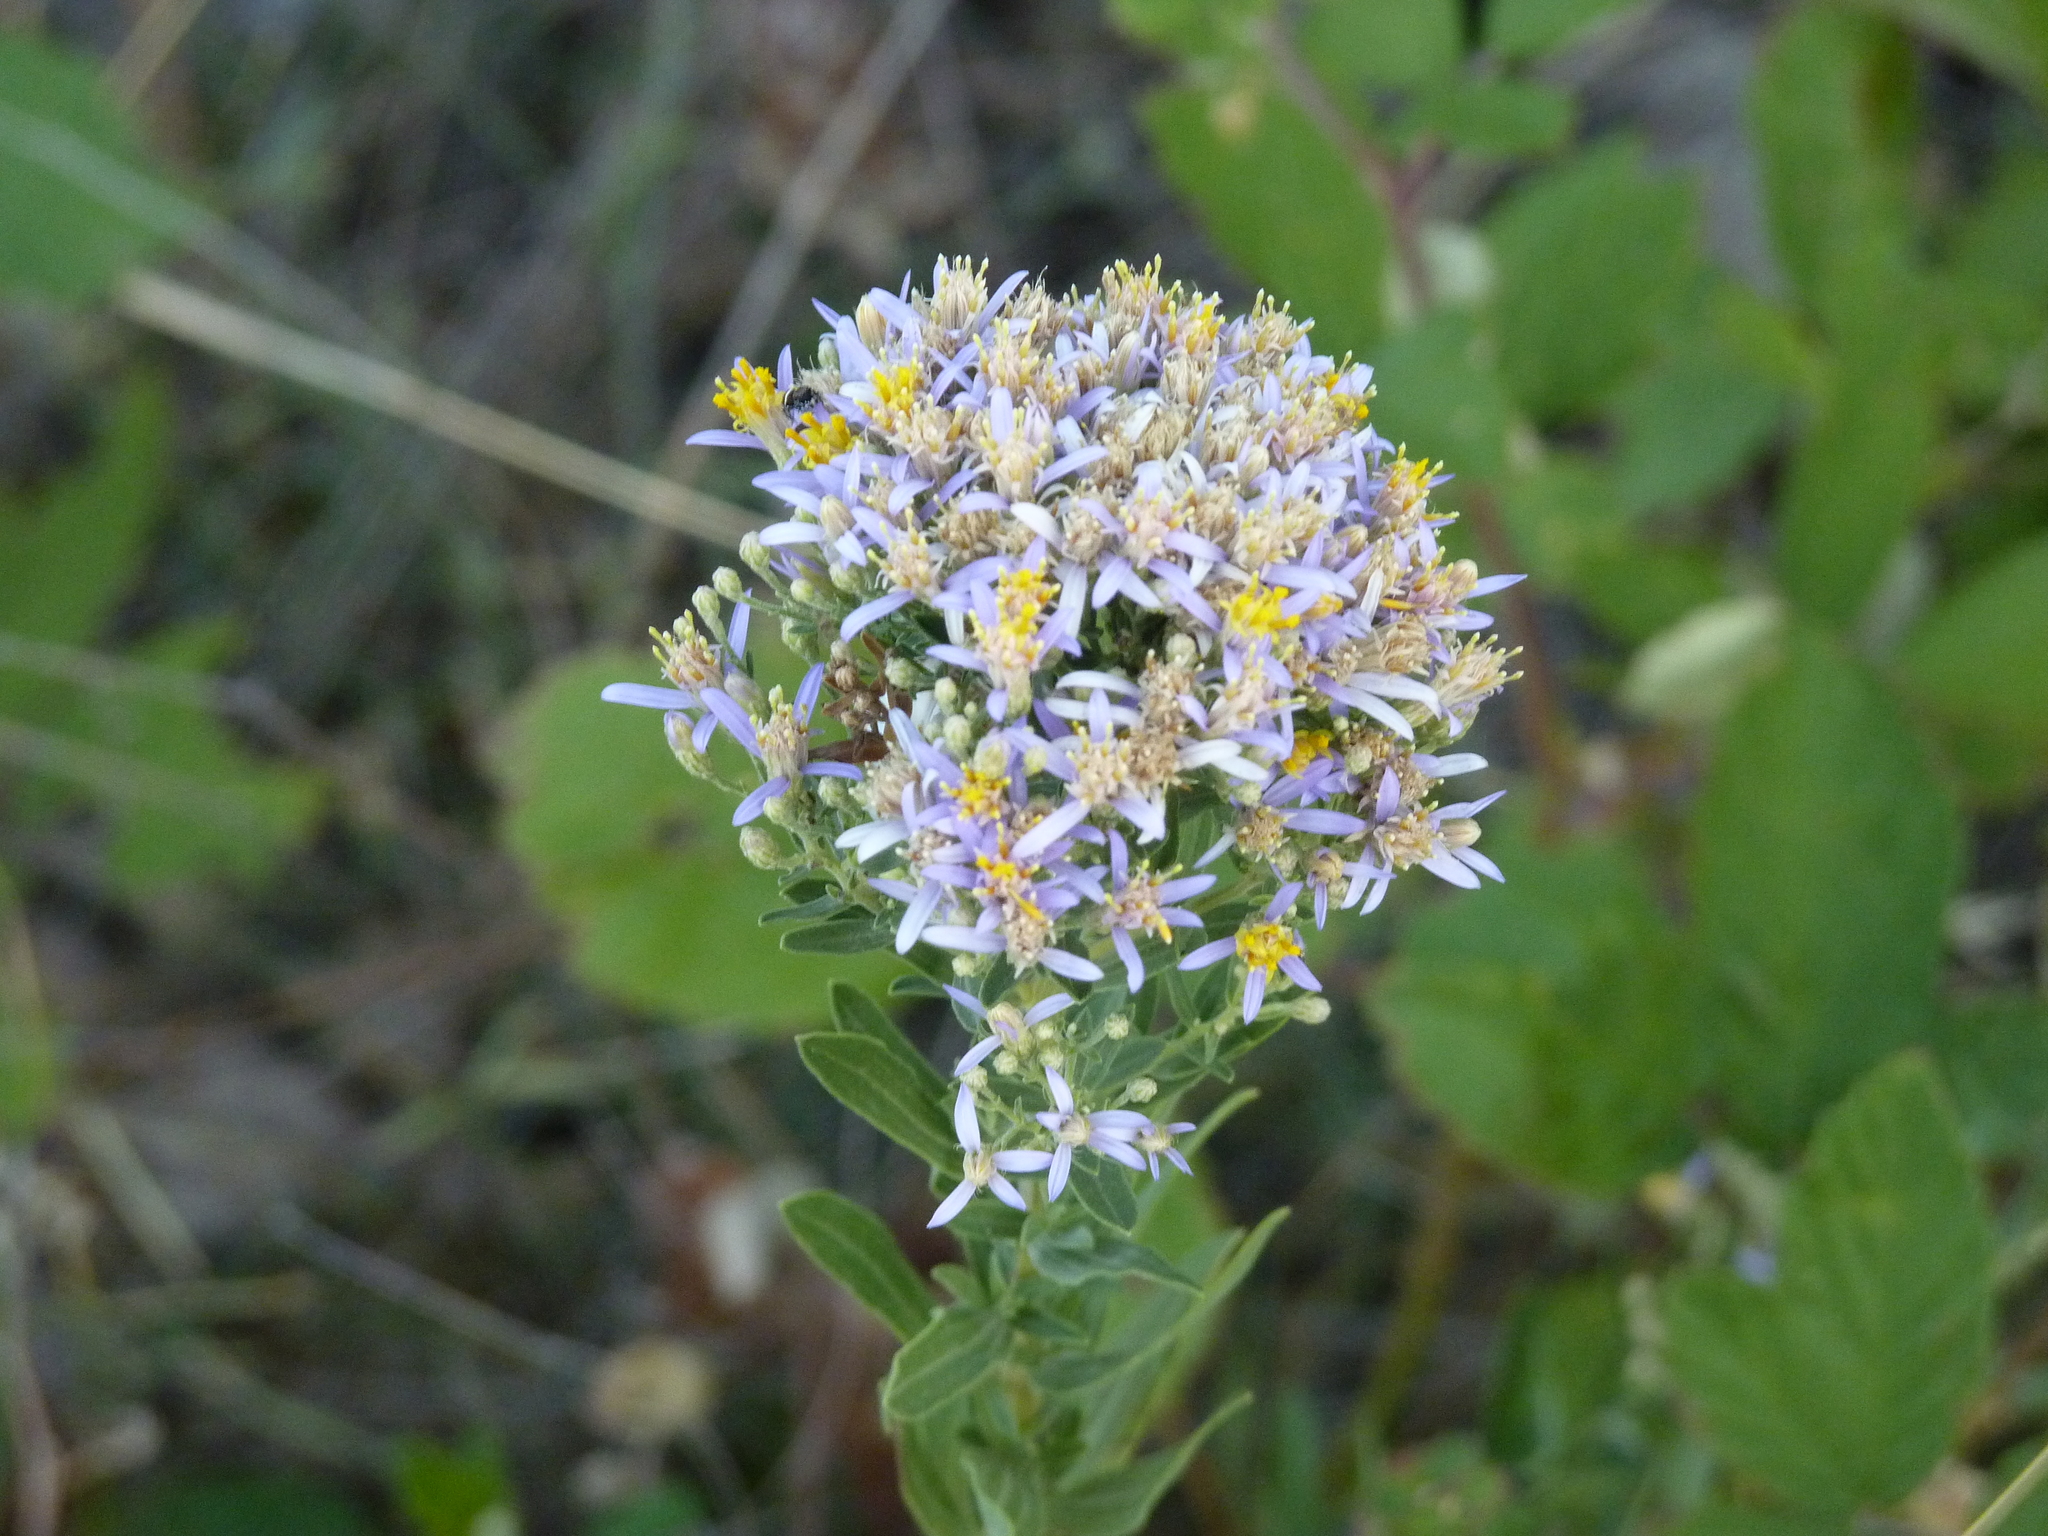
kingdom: Plantae
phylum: Tracheophyta
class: Magnoliopsida
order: Asterales
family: Asteraceae
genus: Galatella
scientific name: Galatella sedifolia
